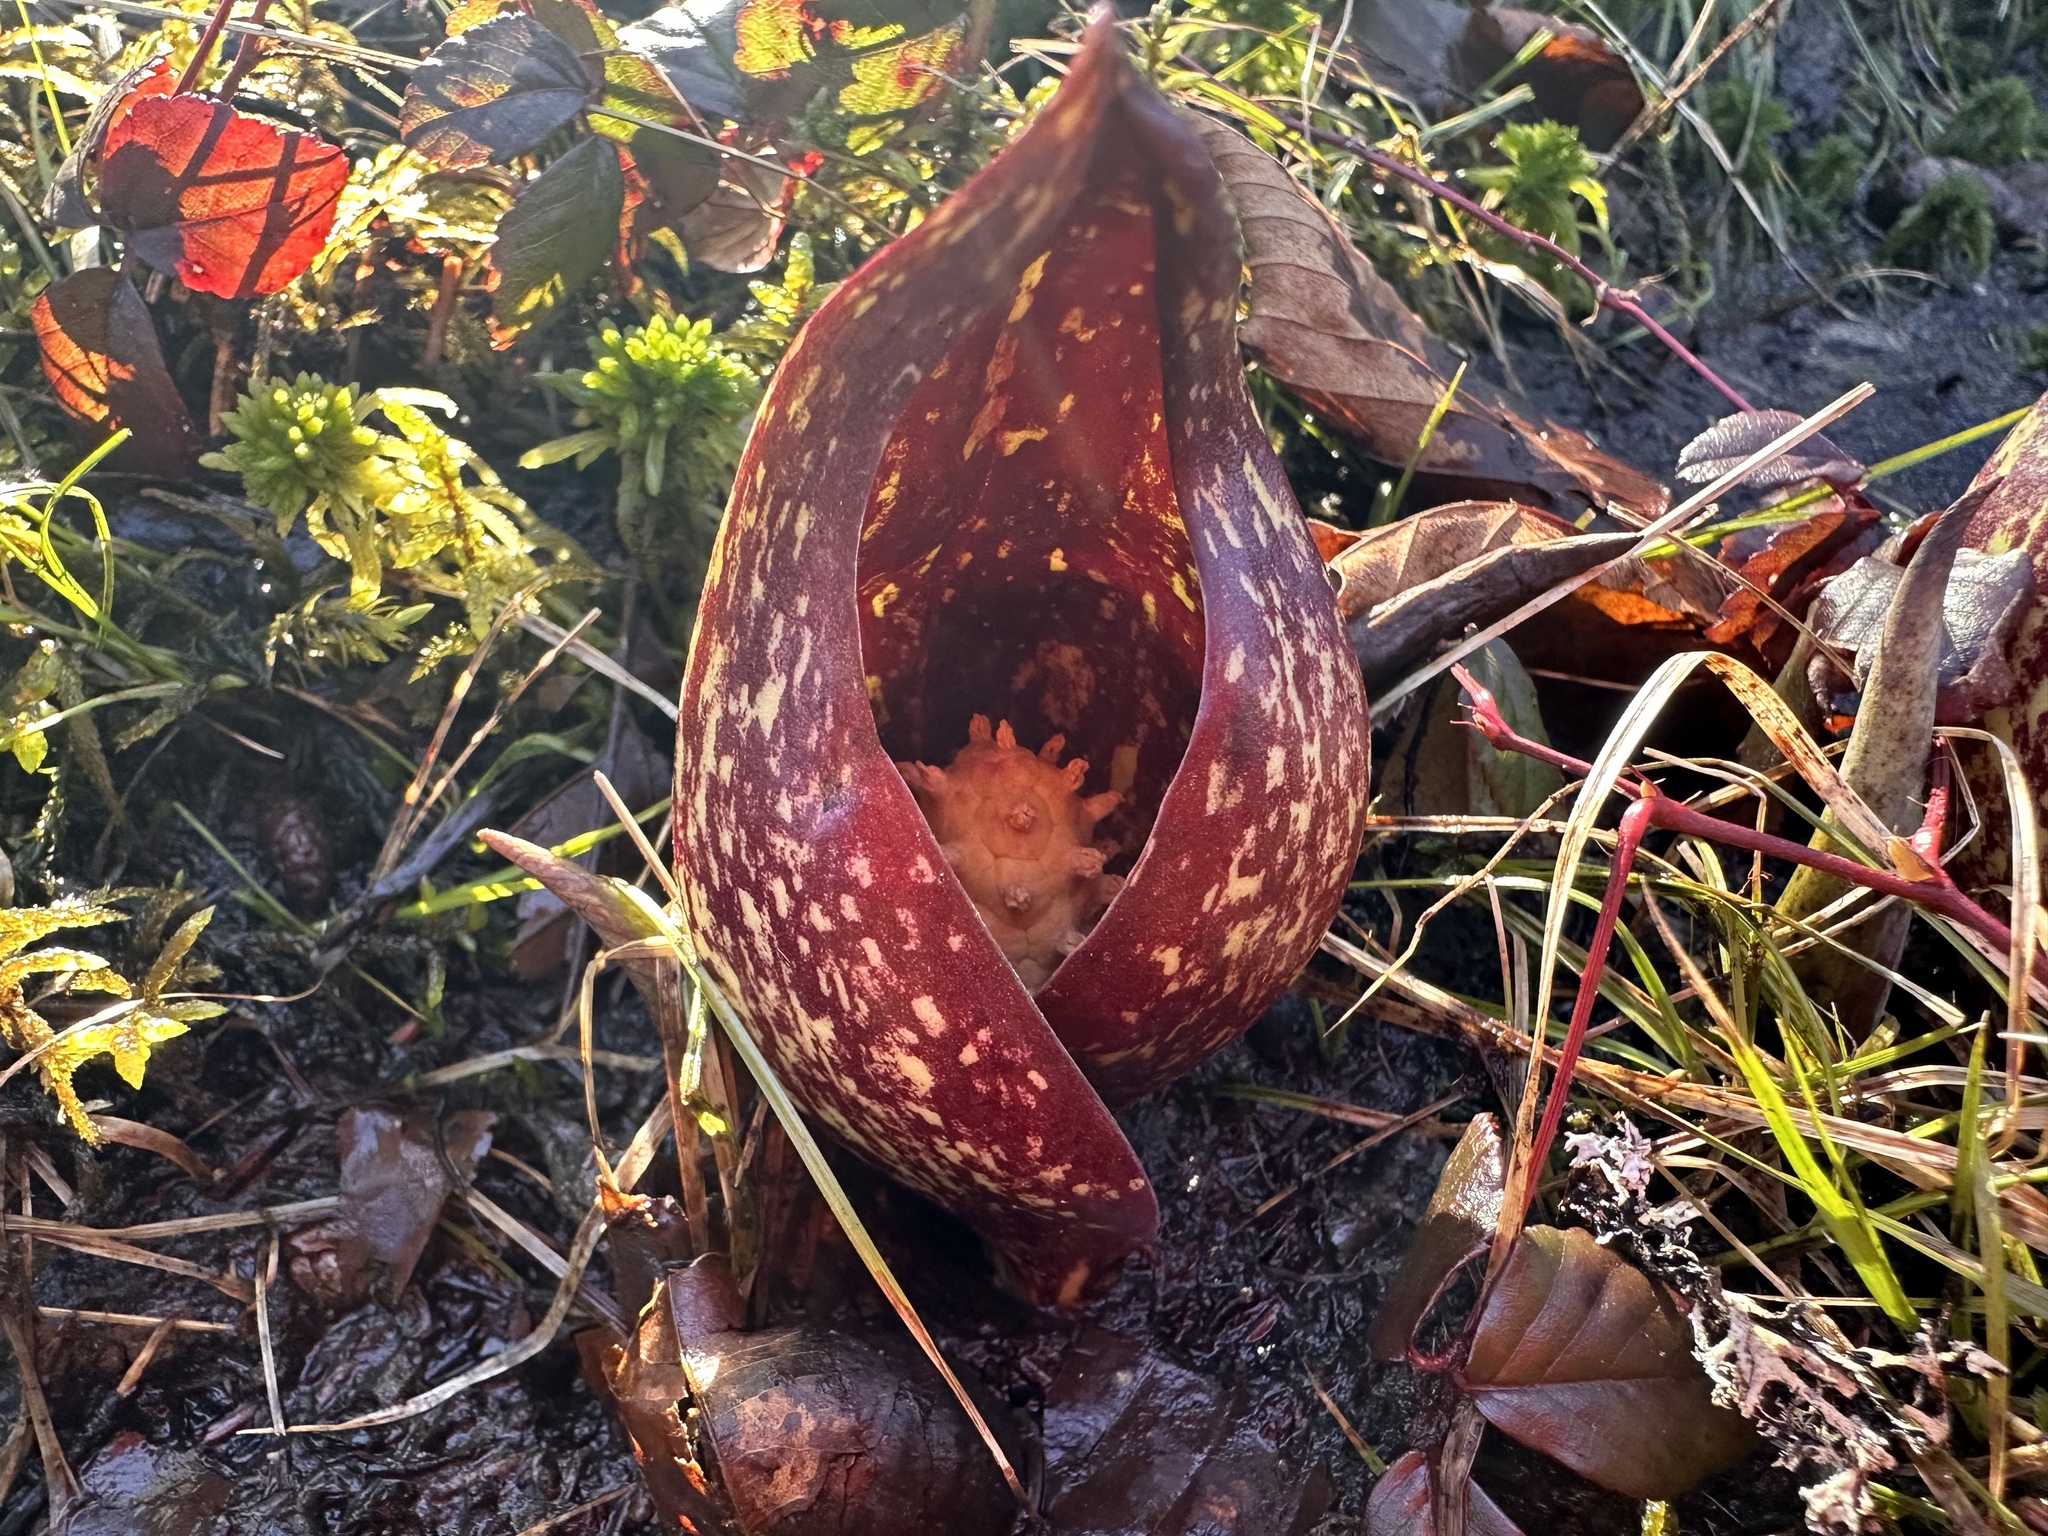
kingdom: Plantae
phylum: Tracheophyta
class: Liliopsida
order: Alismatales
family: Araceae
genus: Symplocarpus
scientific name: Symplocarpus foetidus
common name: Eastern skunk cabbage
